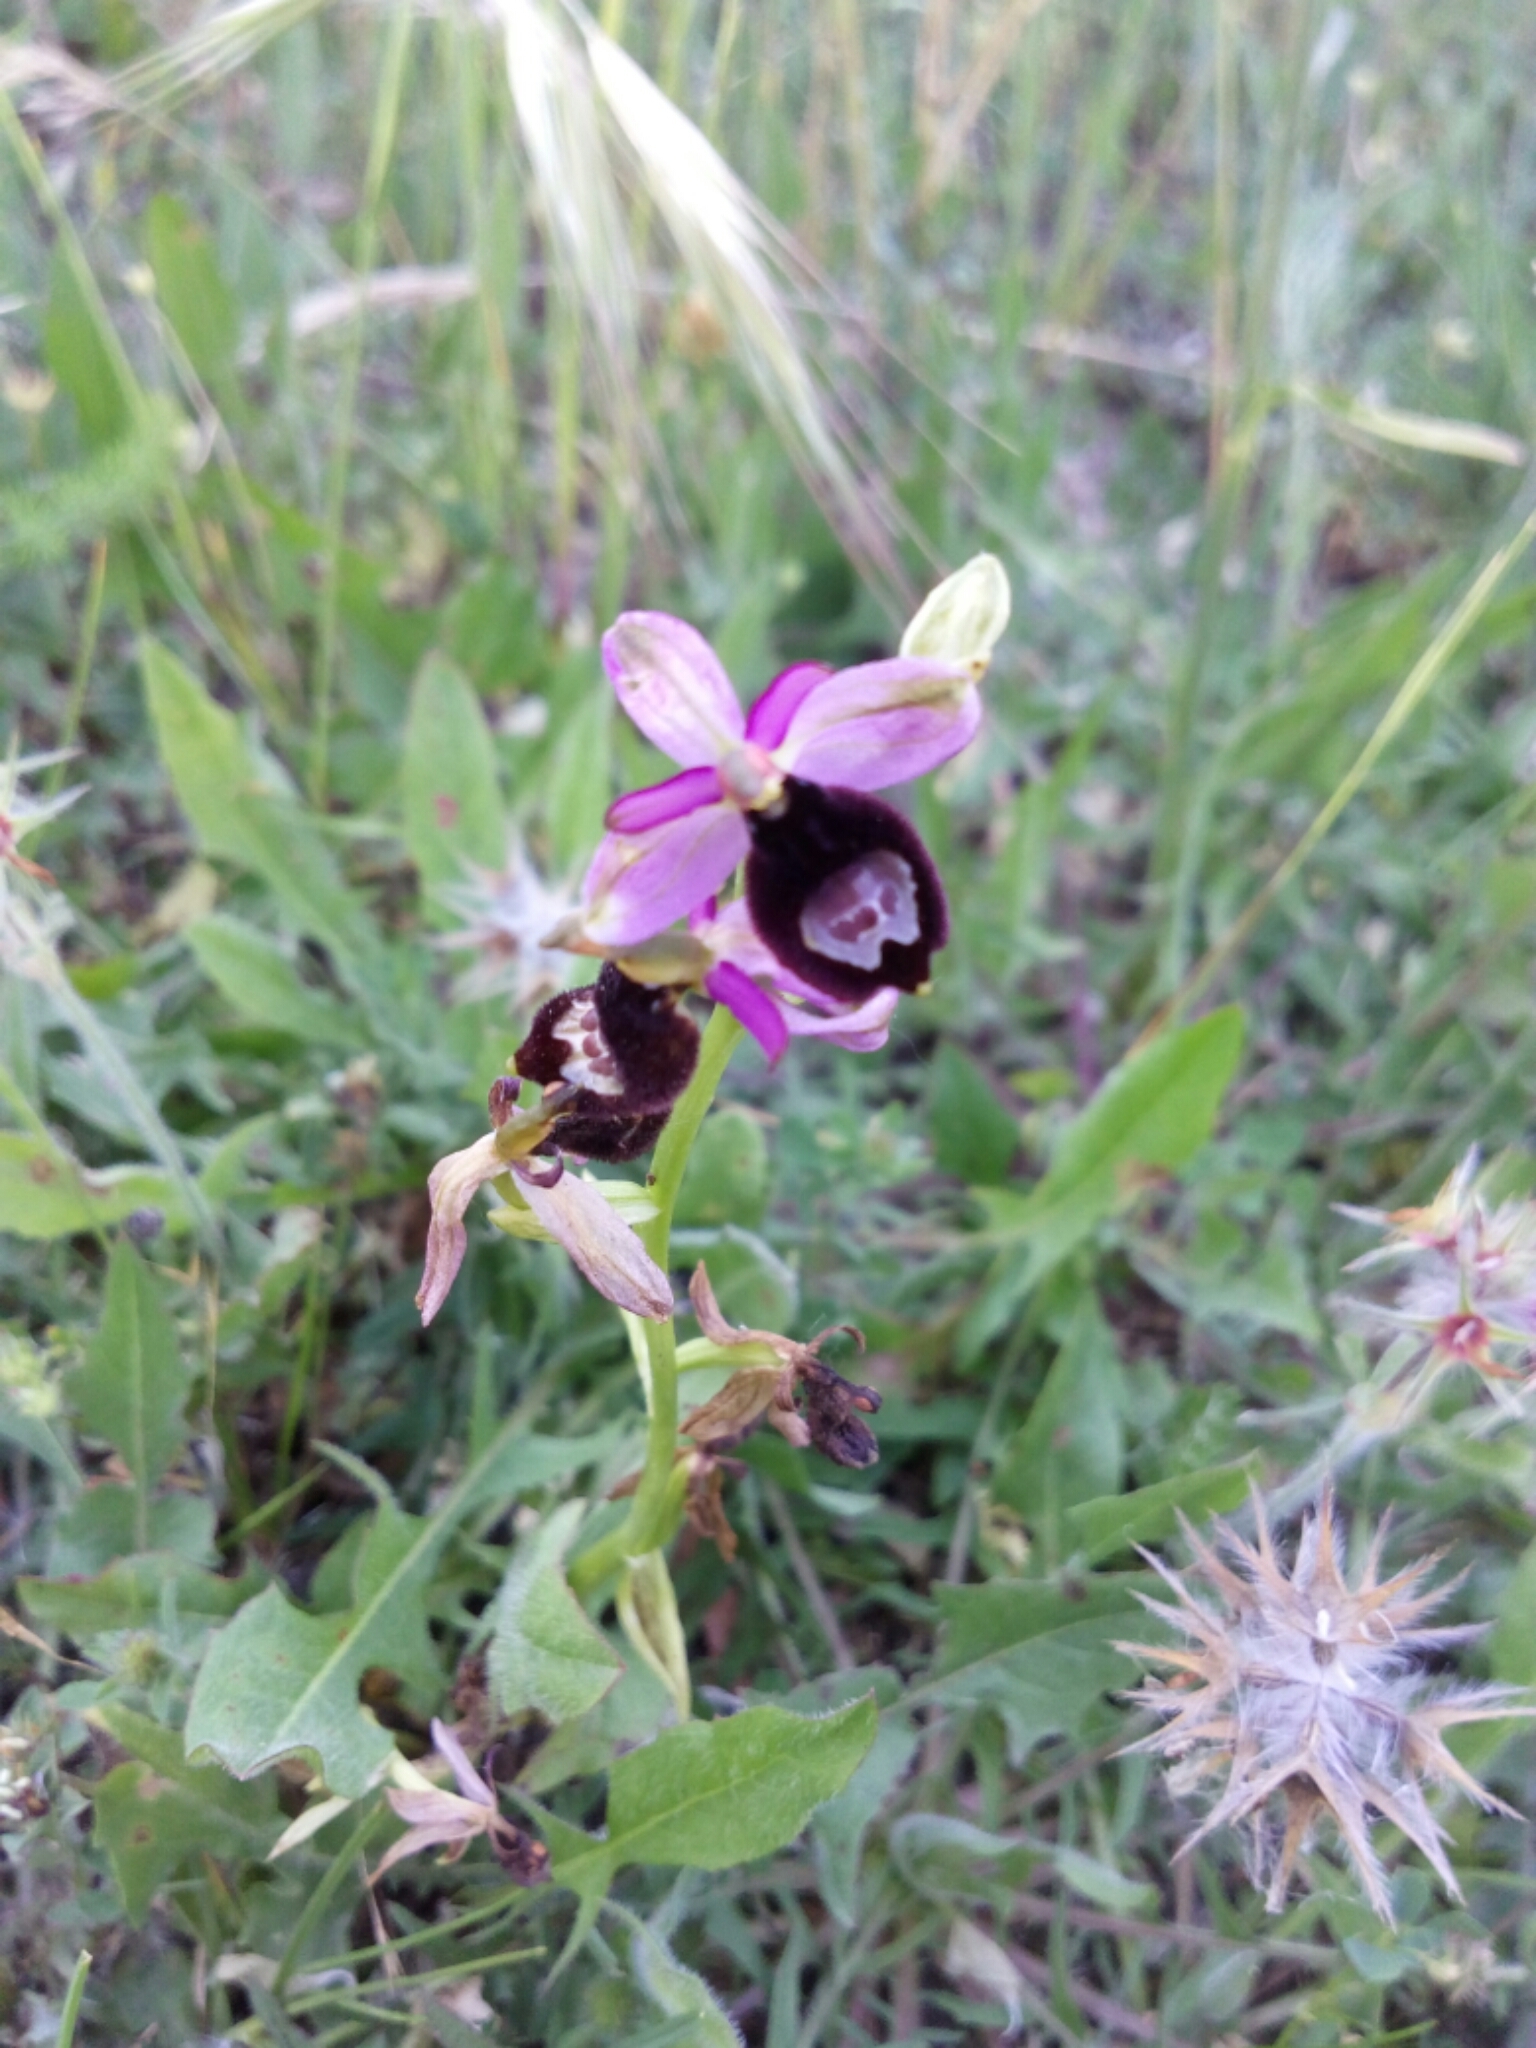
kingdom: Plantae
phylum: Tracheophyta
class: Liliopsida
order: Asparagales
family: Orchidaceae
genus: Ophrys
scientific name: Ophrys bertolonii
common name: Bertoloni's bee orchid
